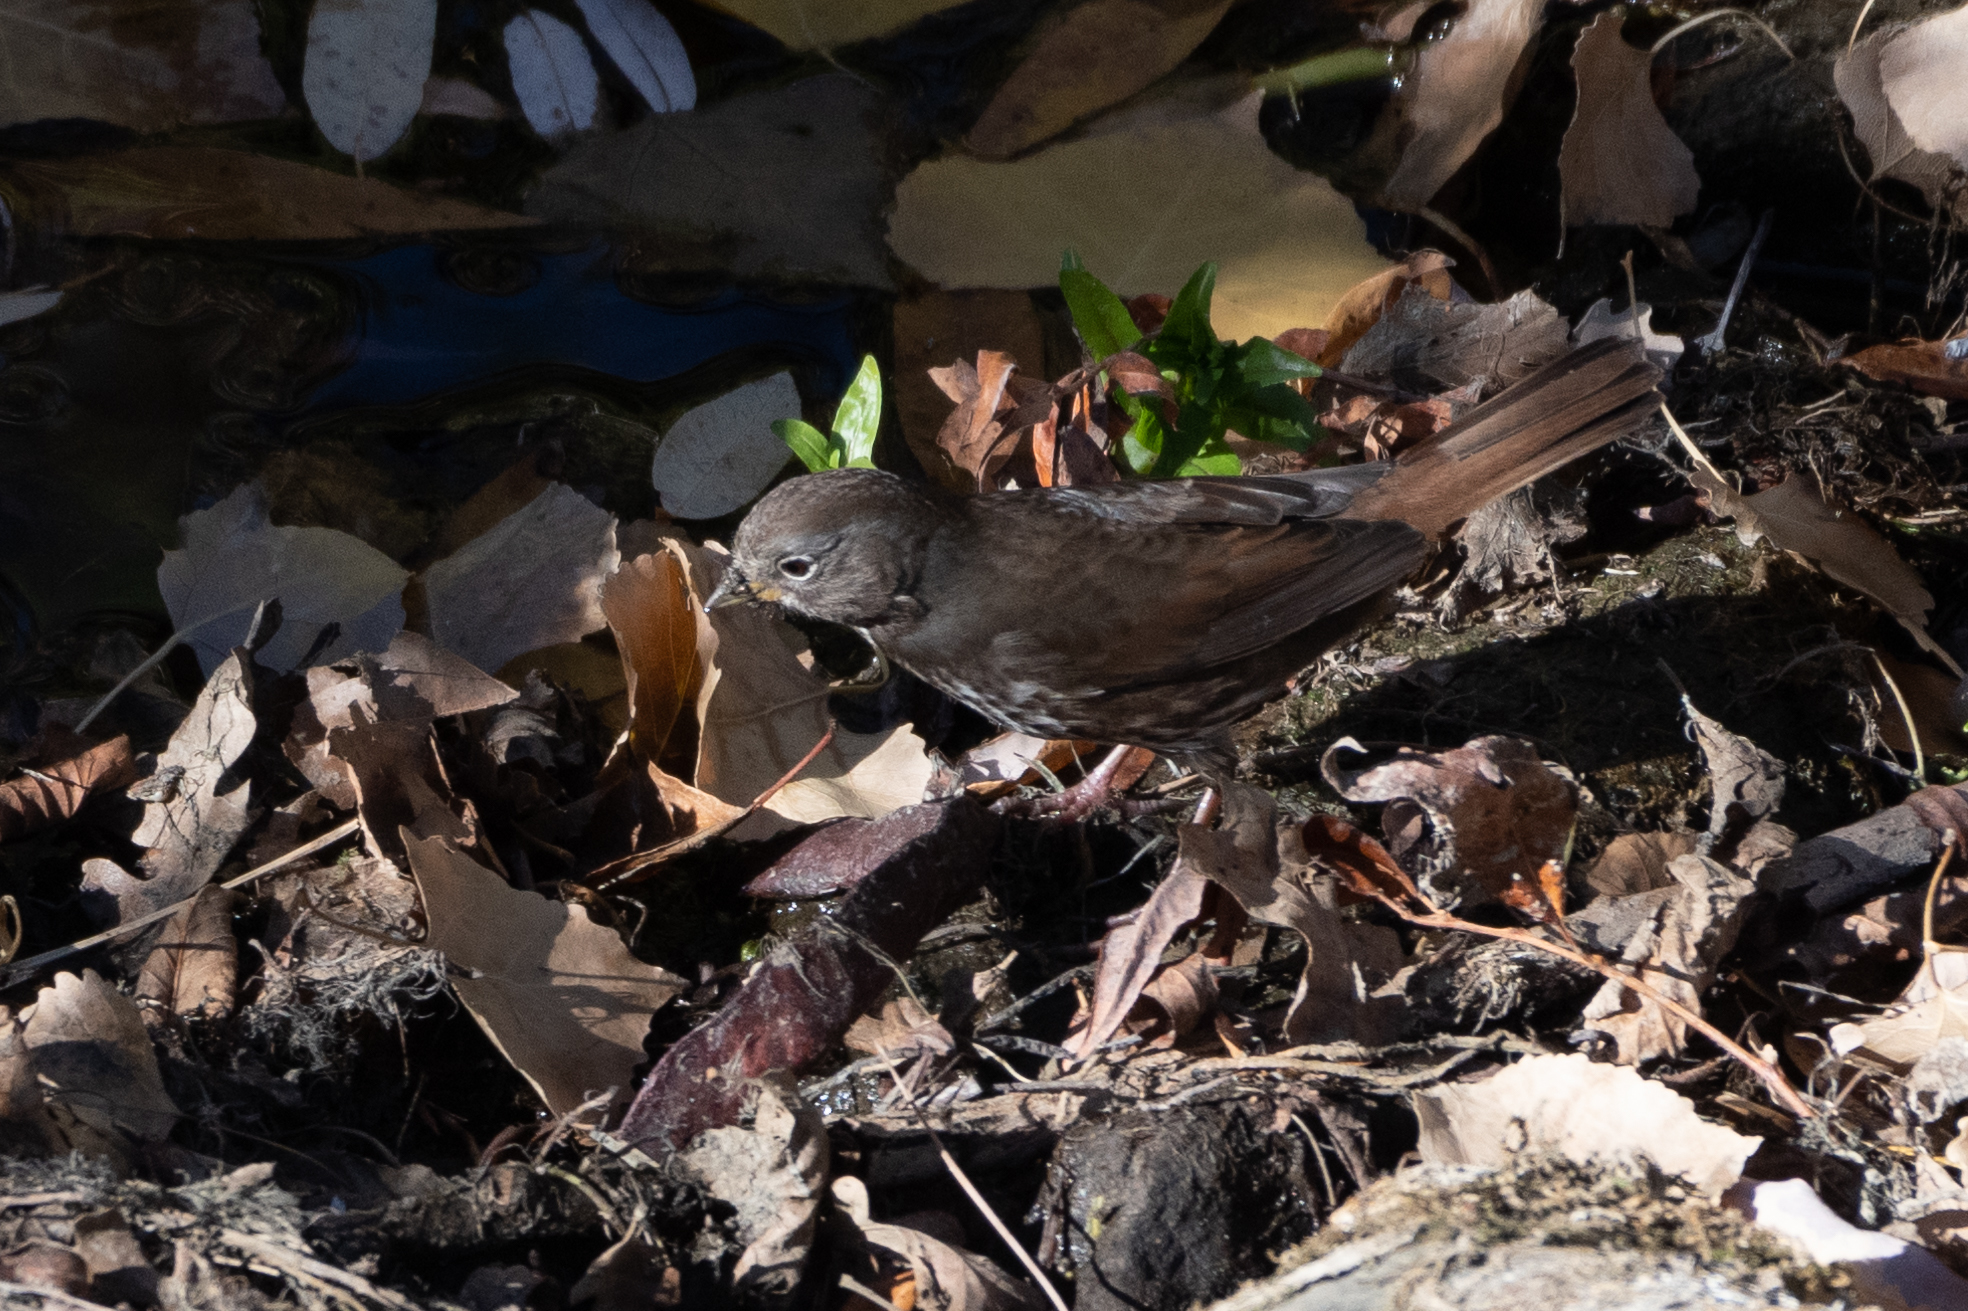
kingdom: Animalia
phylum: Chordata
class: Aves
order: Passeriformes
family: Passerellidae
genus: Passerella
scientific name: Passerella iliaca
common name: Fox sparrow
